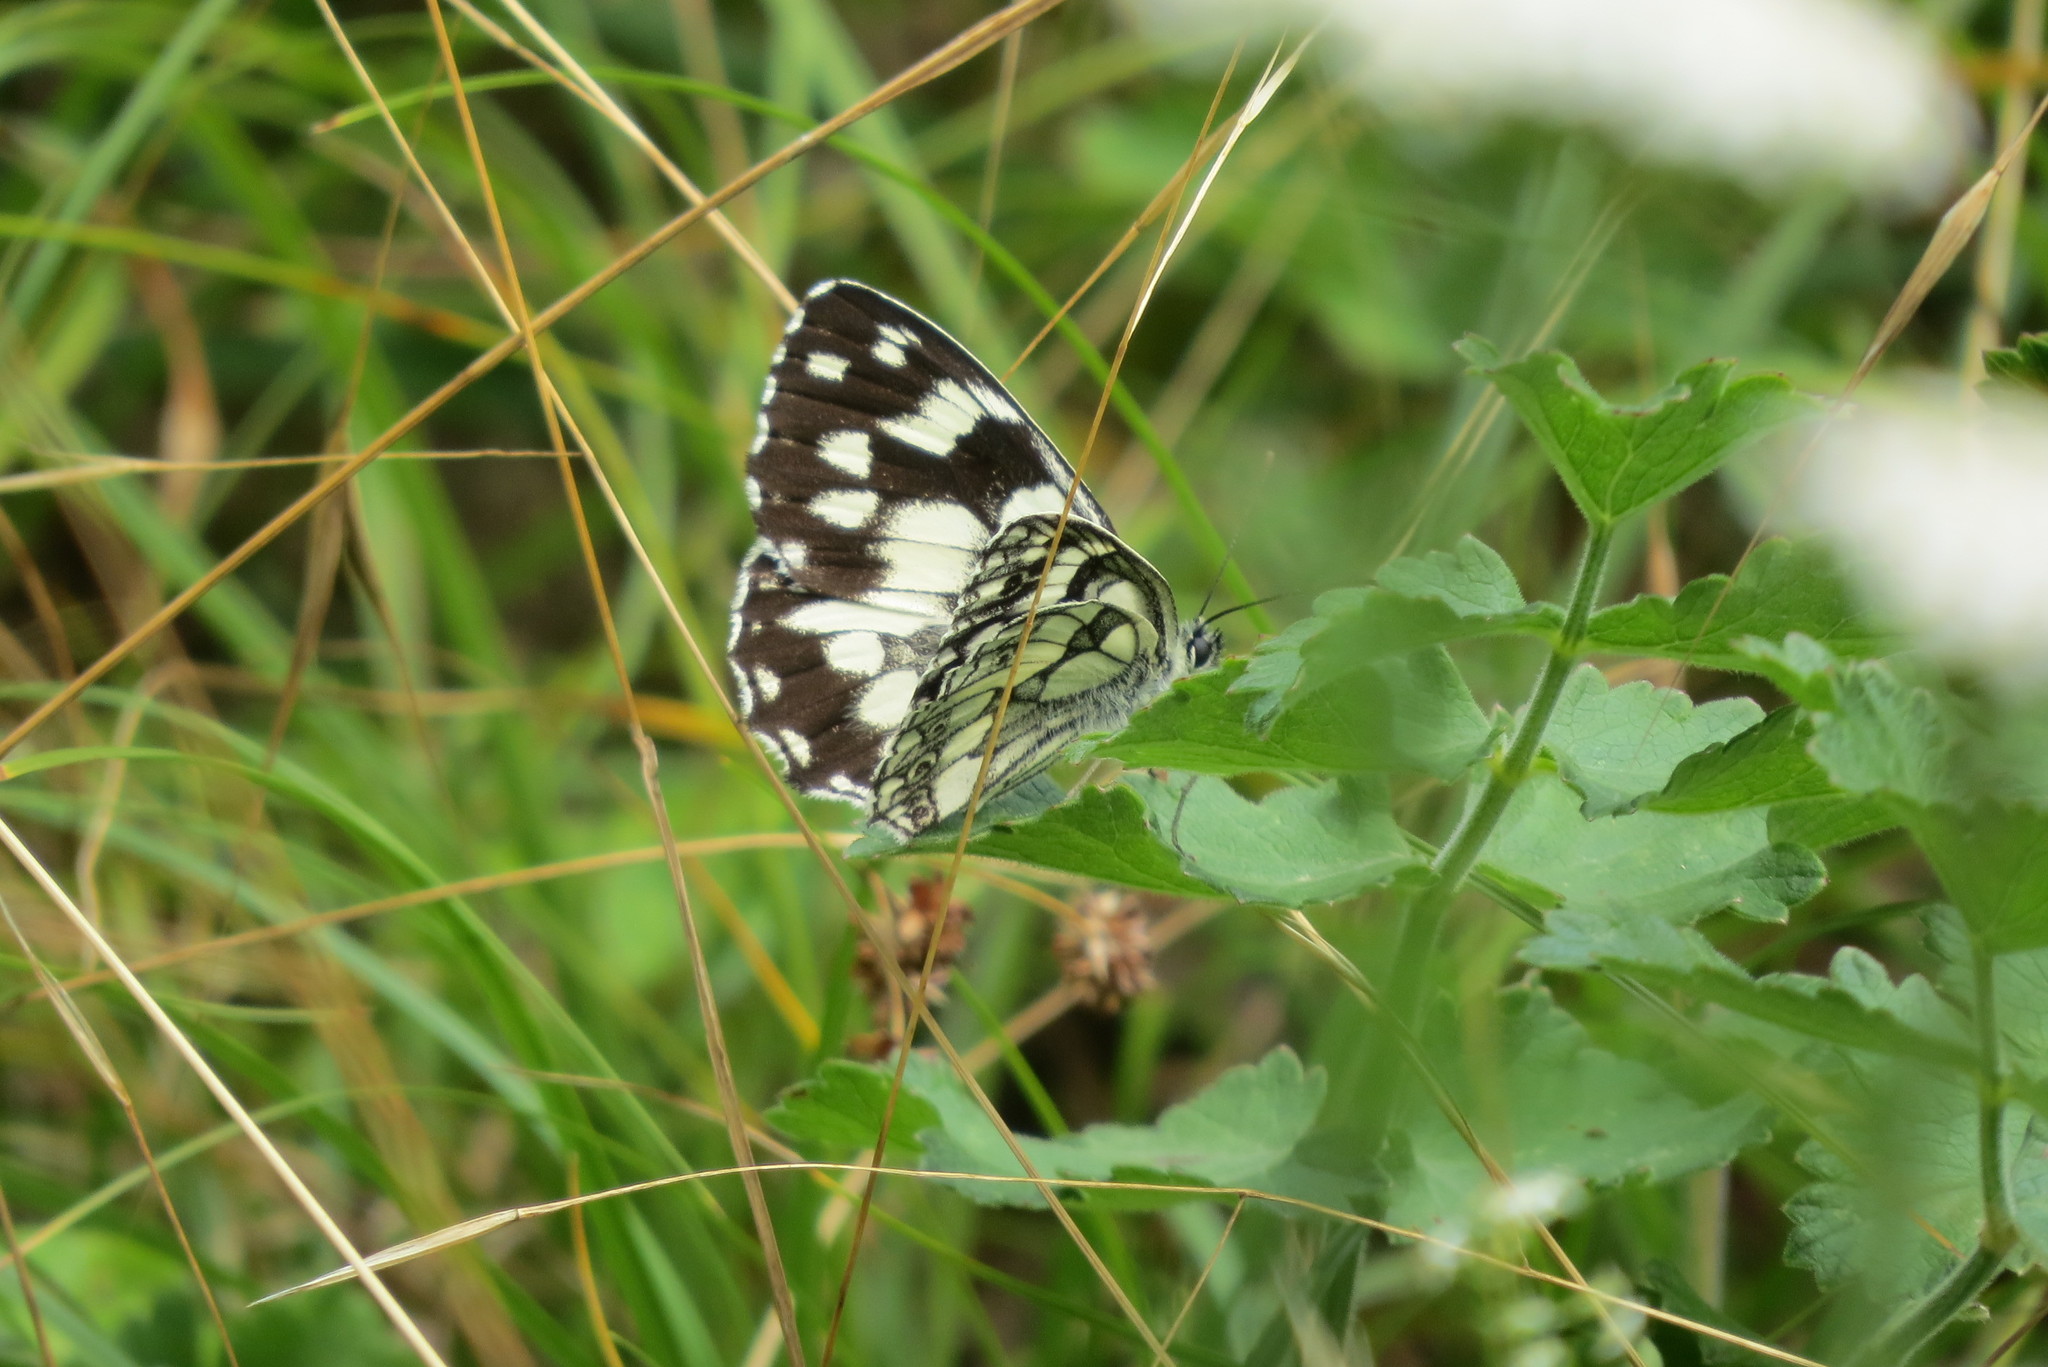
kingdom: Animalia
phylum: Arthropoda
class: Insecta
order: Lepidoptera
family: Nymphalidae
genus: Melanargia
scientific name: Melanargia galathea
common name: Marbled white
